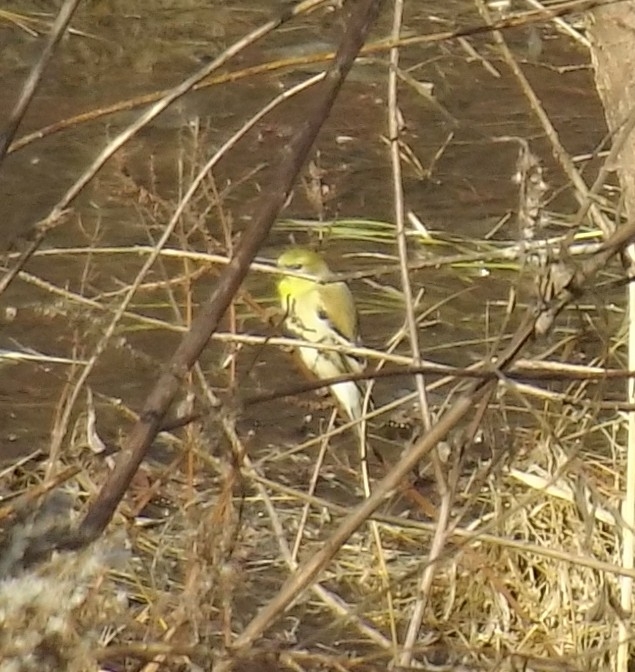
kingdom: Animalia
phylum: Chordata
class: Aves
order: Passeriformes
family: Fringillidae
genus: Spinus
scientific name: Spinus tristis
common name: American goldfinch
